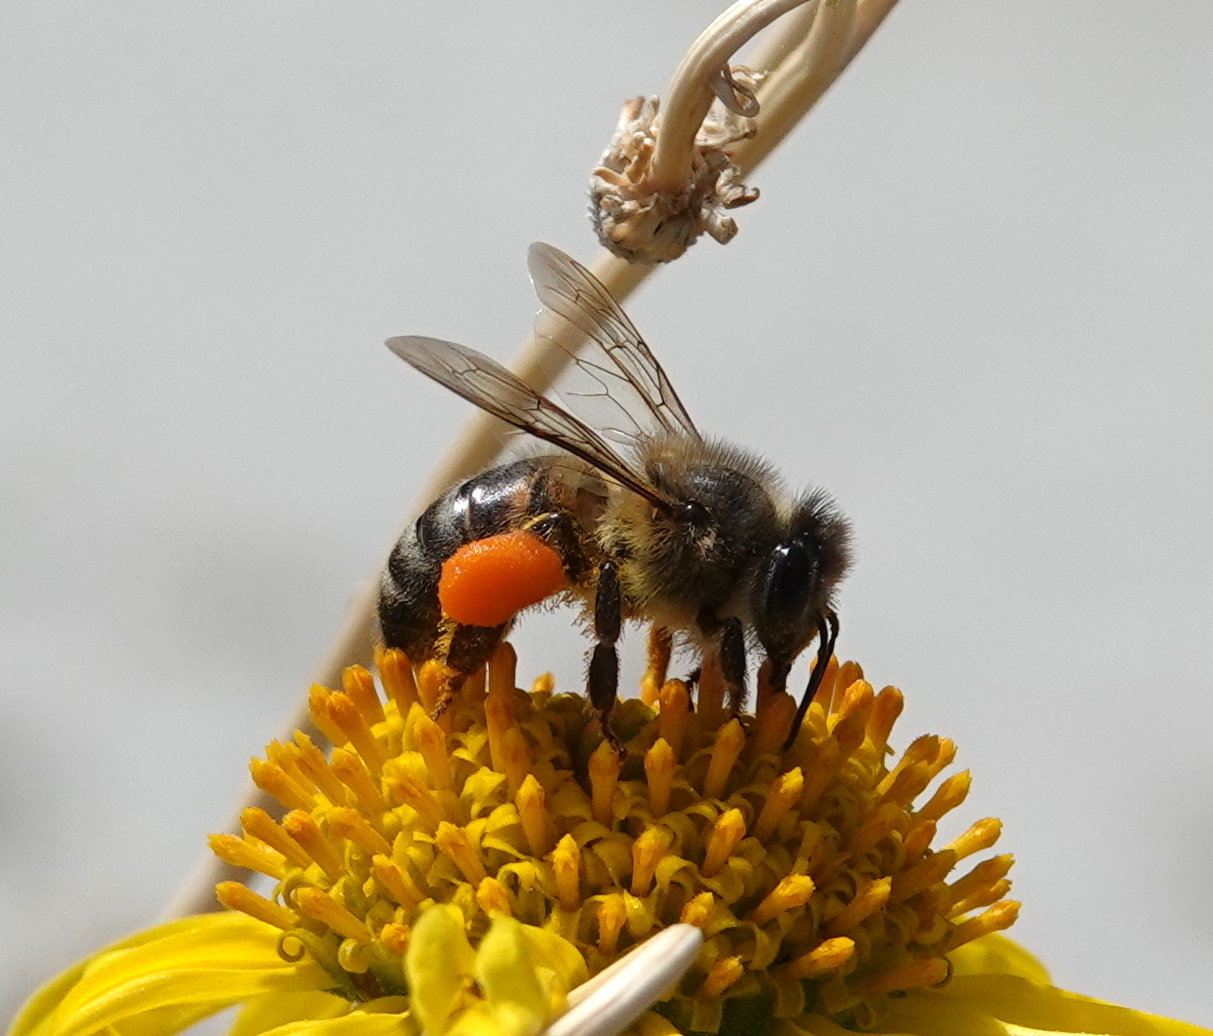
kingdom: Animalia
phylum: Arthropoda
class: Insecta
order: Hymenoptera
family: Apidae
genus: Apis
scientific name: Apis mellifera
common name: Honey bee
